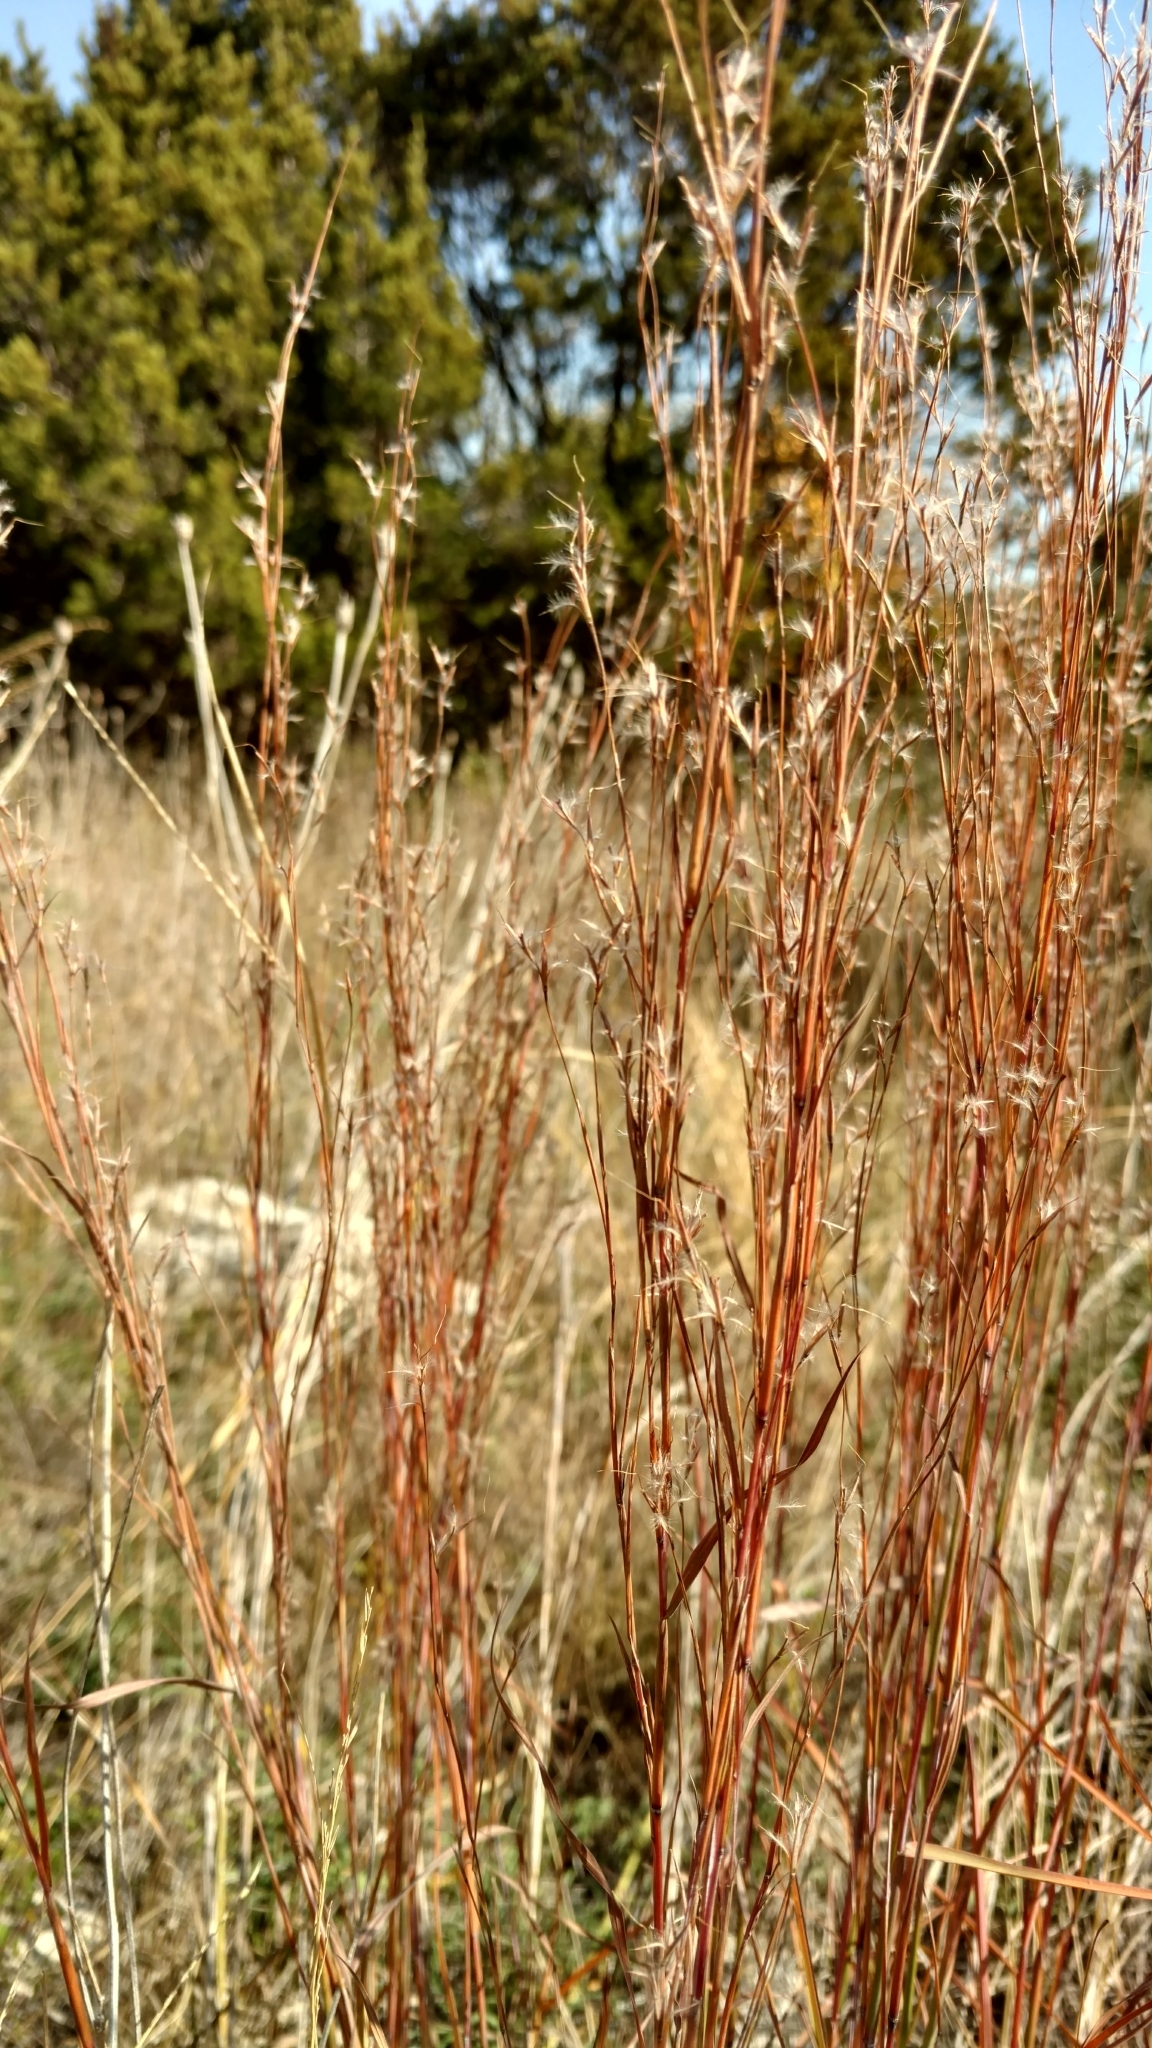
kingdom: Plantae
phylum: Tracheophyta
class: Liliopsida
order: Poales
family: Poaceae
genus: Schizachyrium
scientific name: Schizachyrium scoparium
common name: Little bluestem
